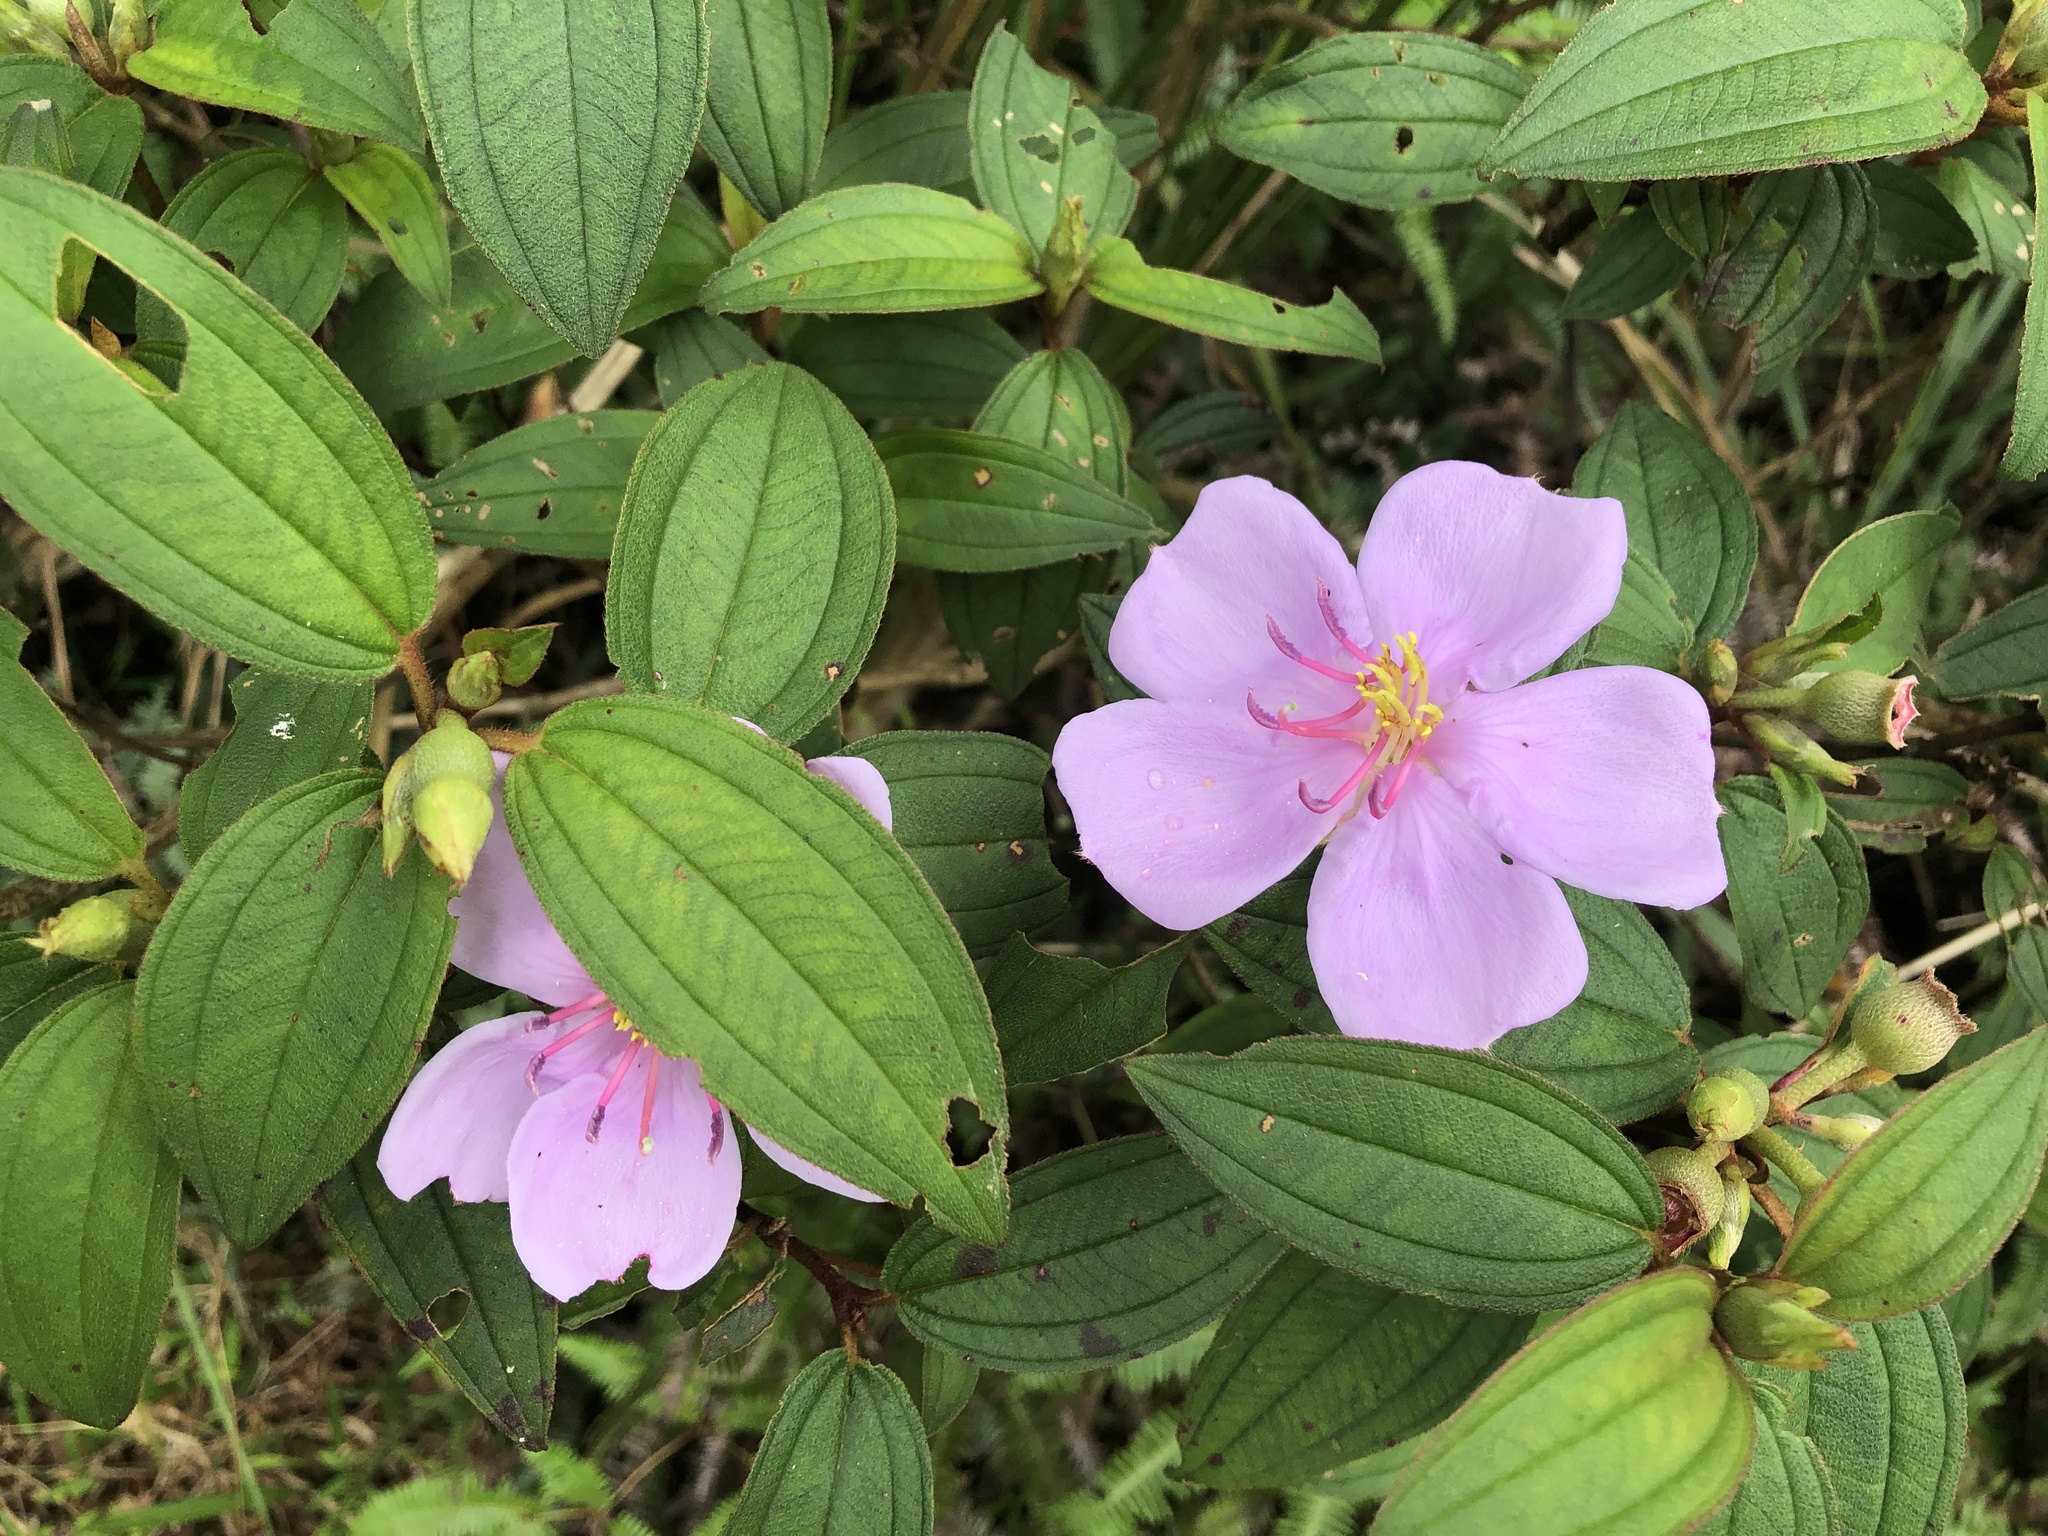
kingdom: Plantae
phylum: Tracheophyta
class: Magnoliopsida
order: Myrtales
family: Melastomataceae
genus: Melastoma
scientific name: Melastoma malabathricum
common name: Indian-rhododendron
